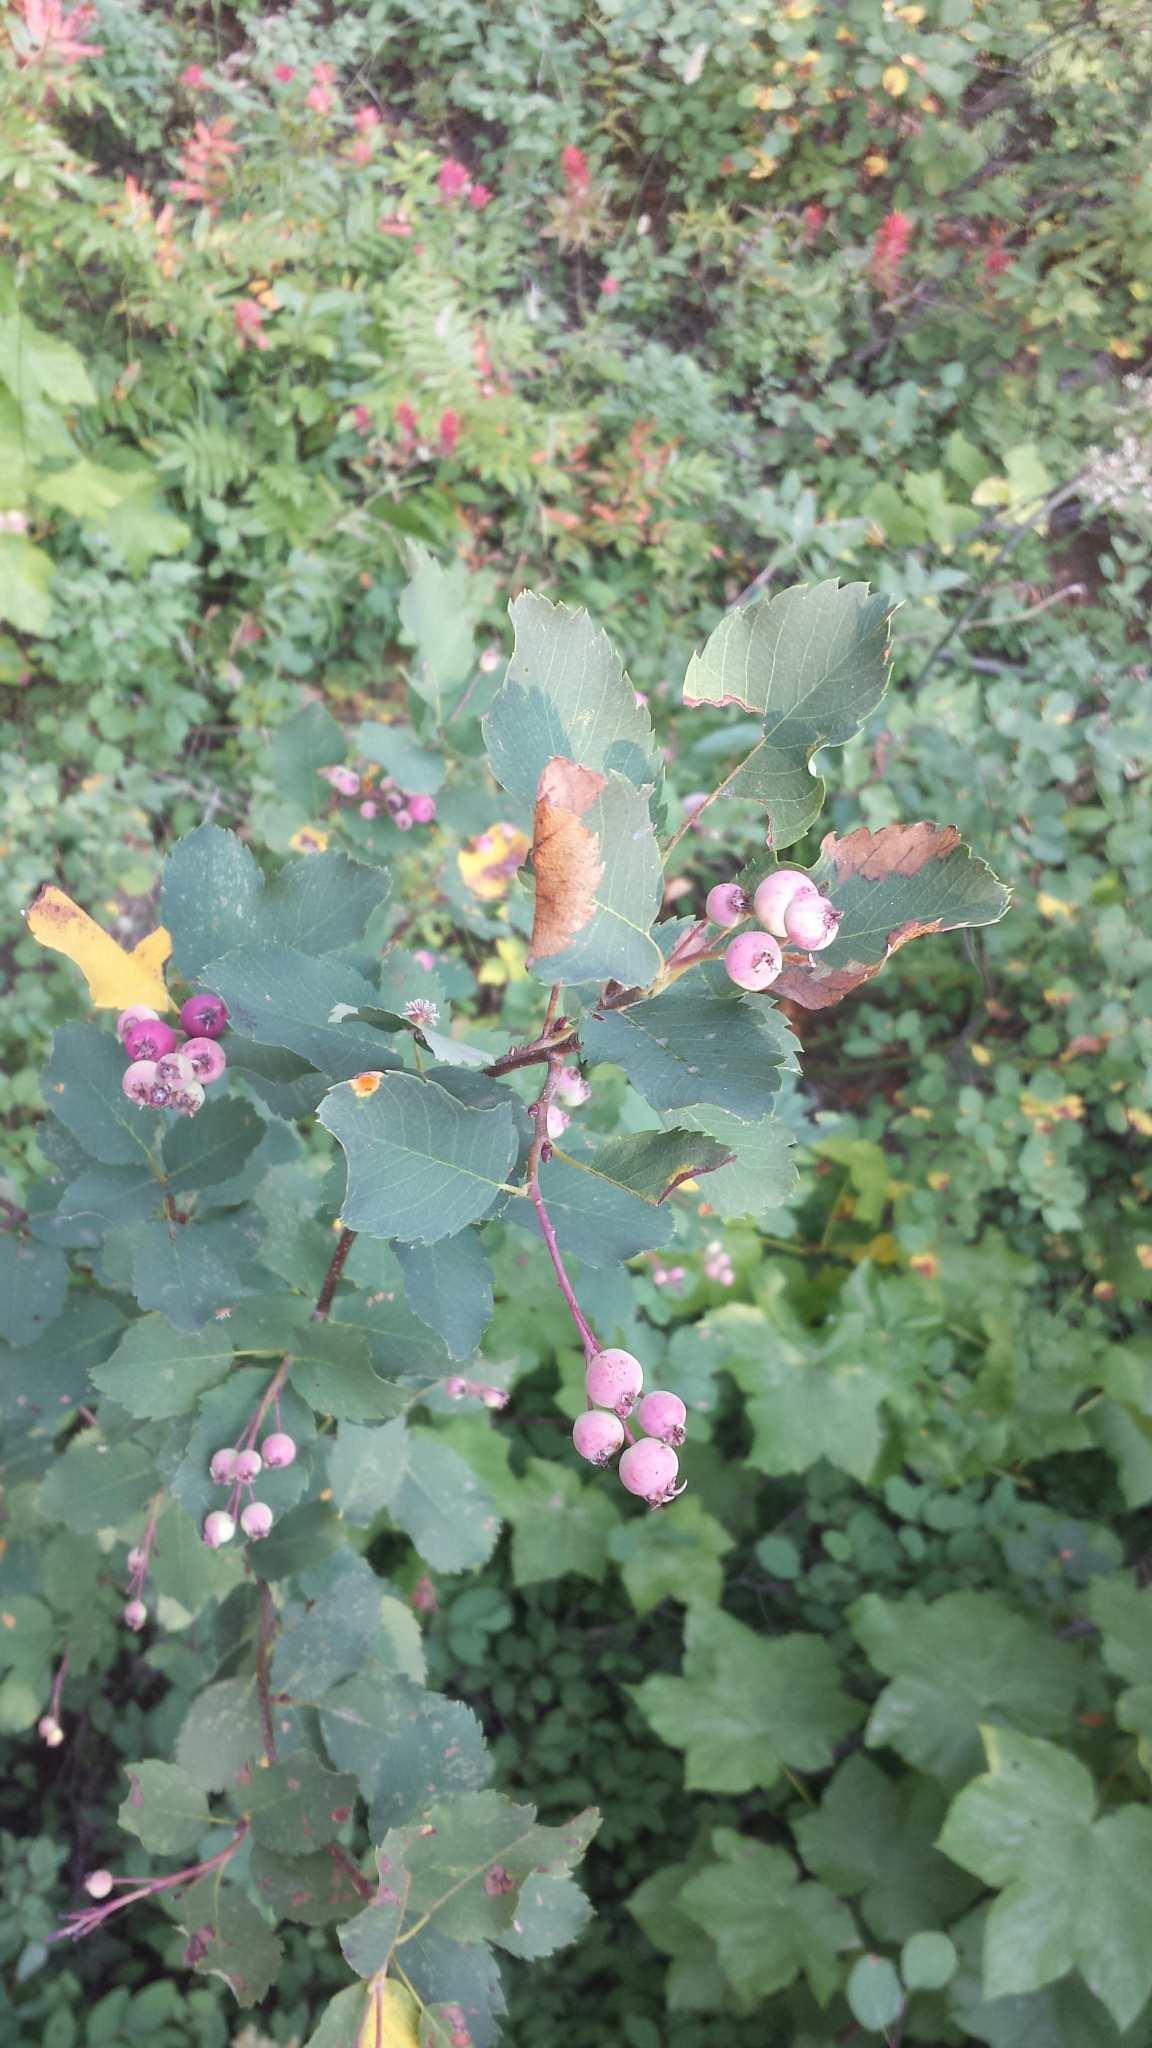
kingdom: Plantae
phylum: Tracheophyta
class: Magnoliopsida
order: Rosales
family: Rosaceae
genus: Amelanchier
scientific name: Amelanchier alnifolia
